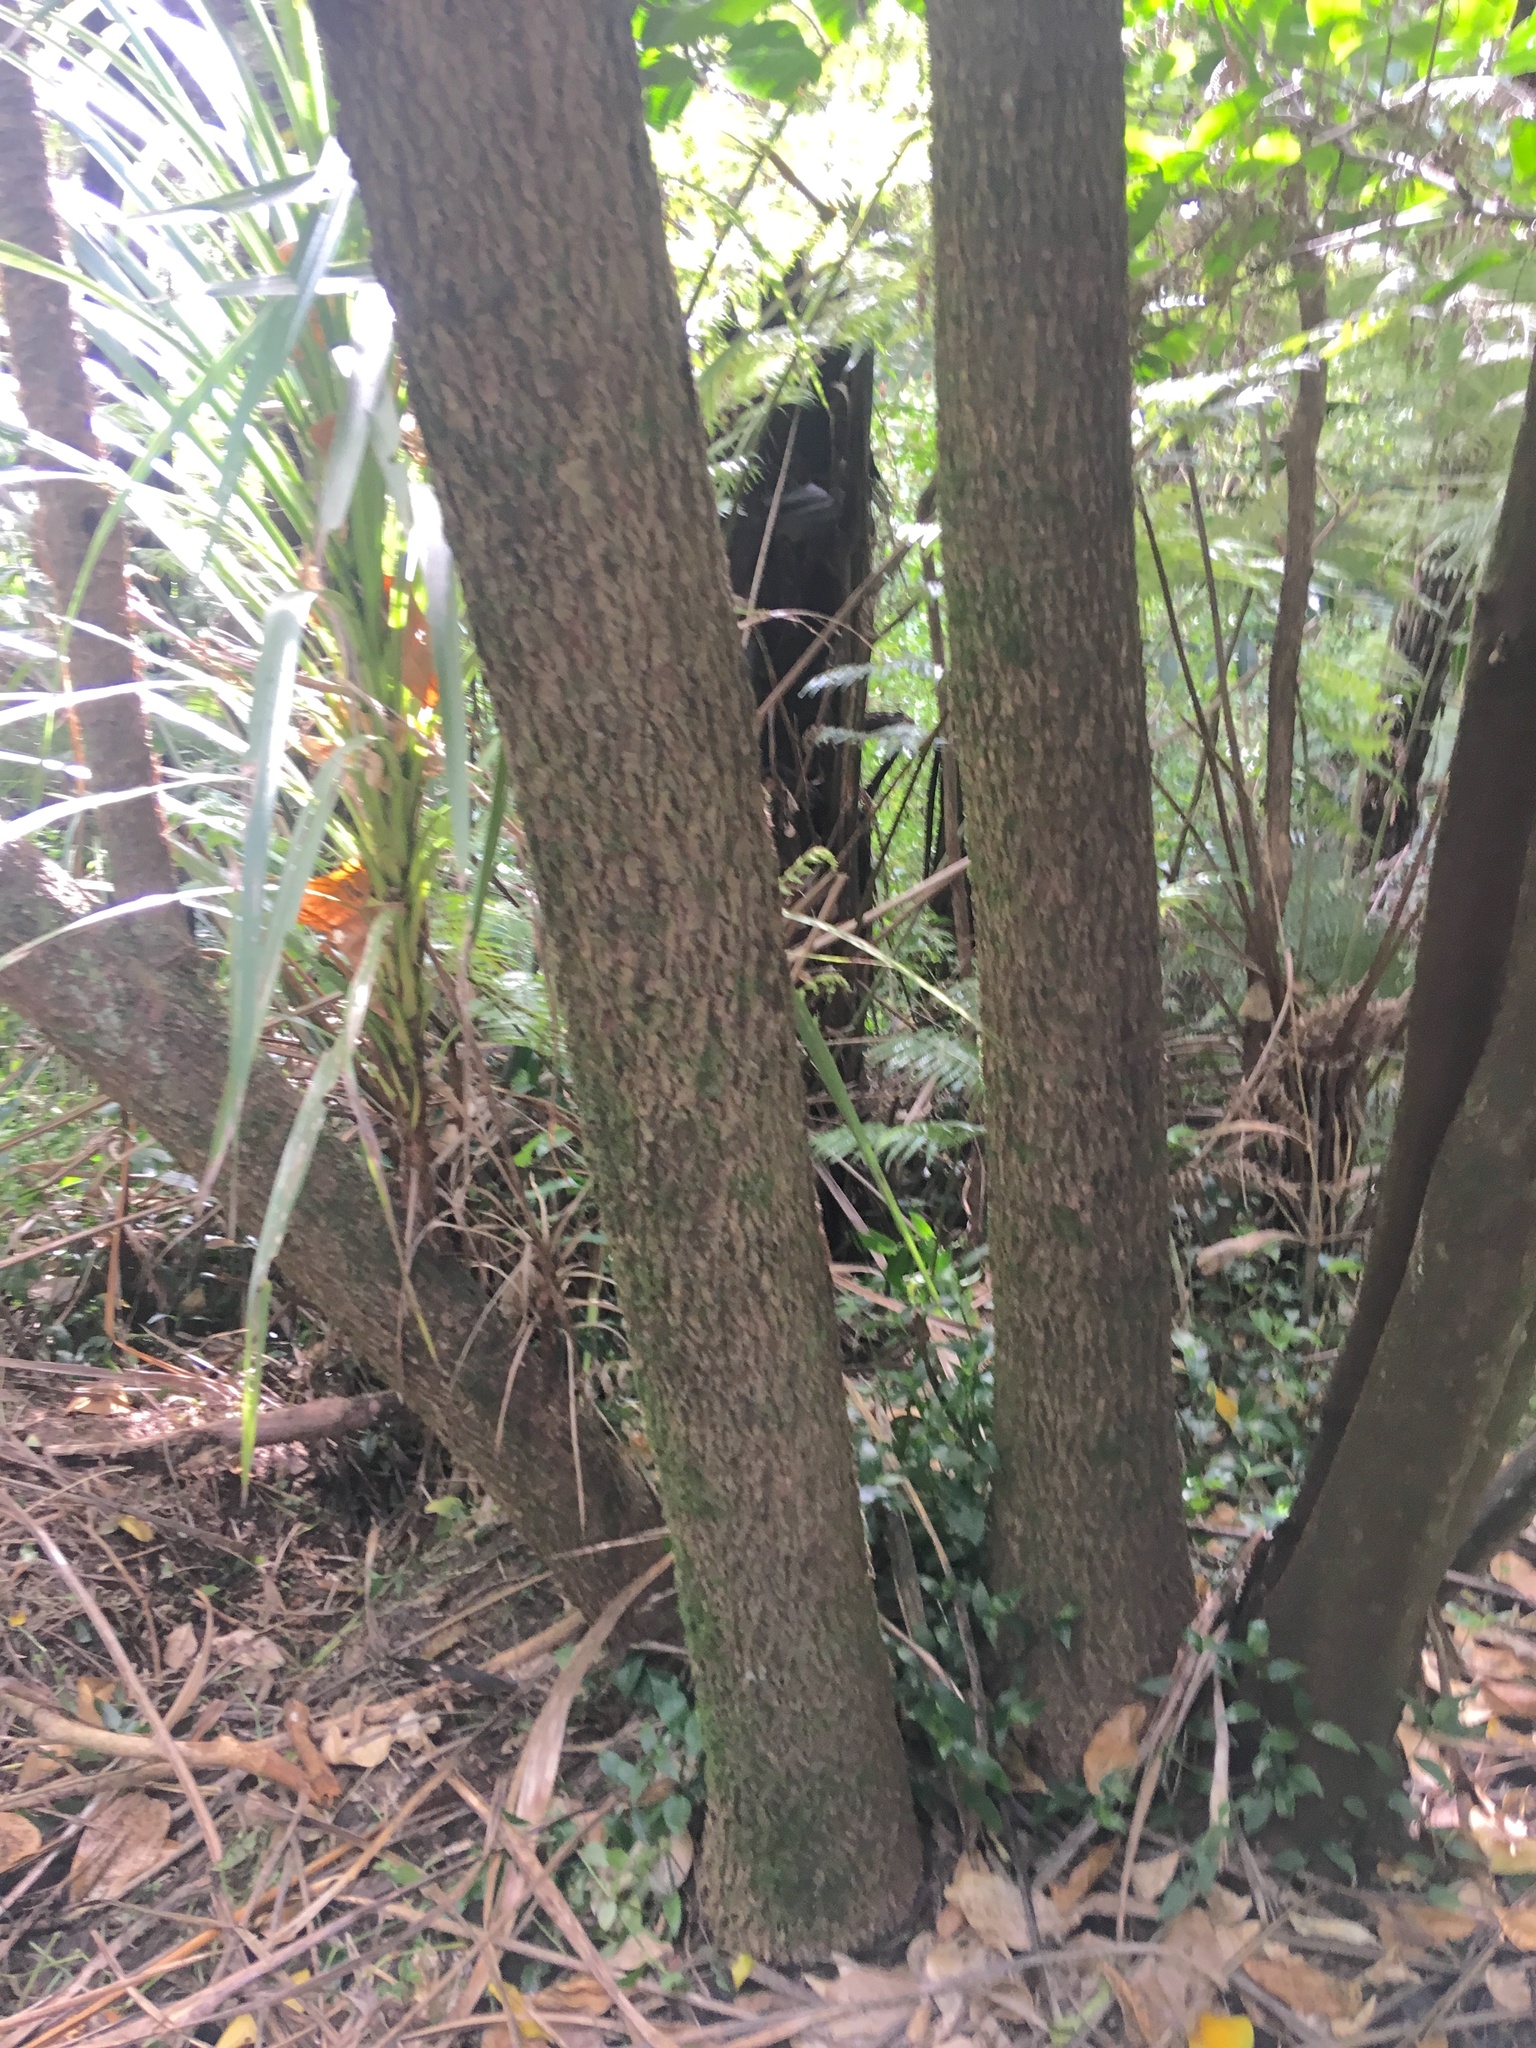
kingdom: Plantae
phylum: Tracheophyta
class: Liliopsida
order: Asparagales
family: Asparagaceae
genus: Cordyline
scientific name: Cordyline australis
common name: Cabbage-palm
